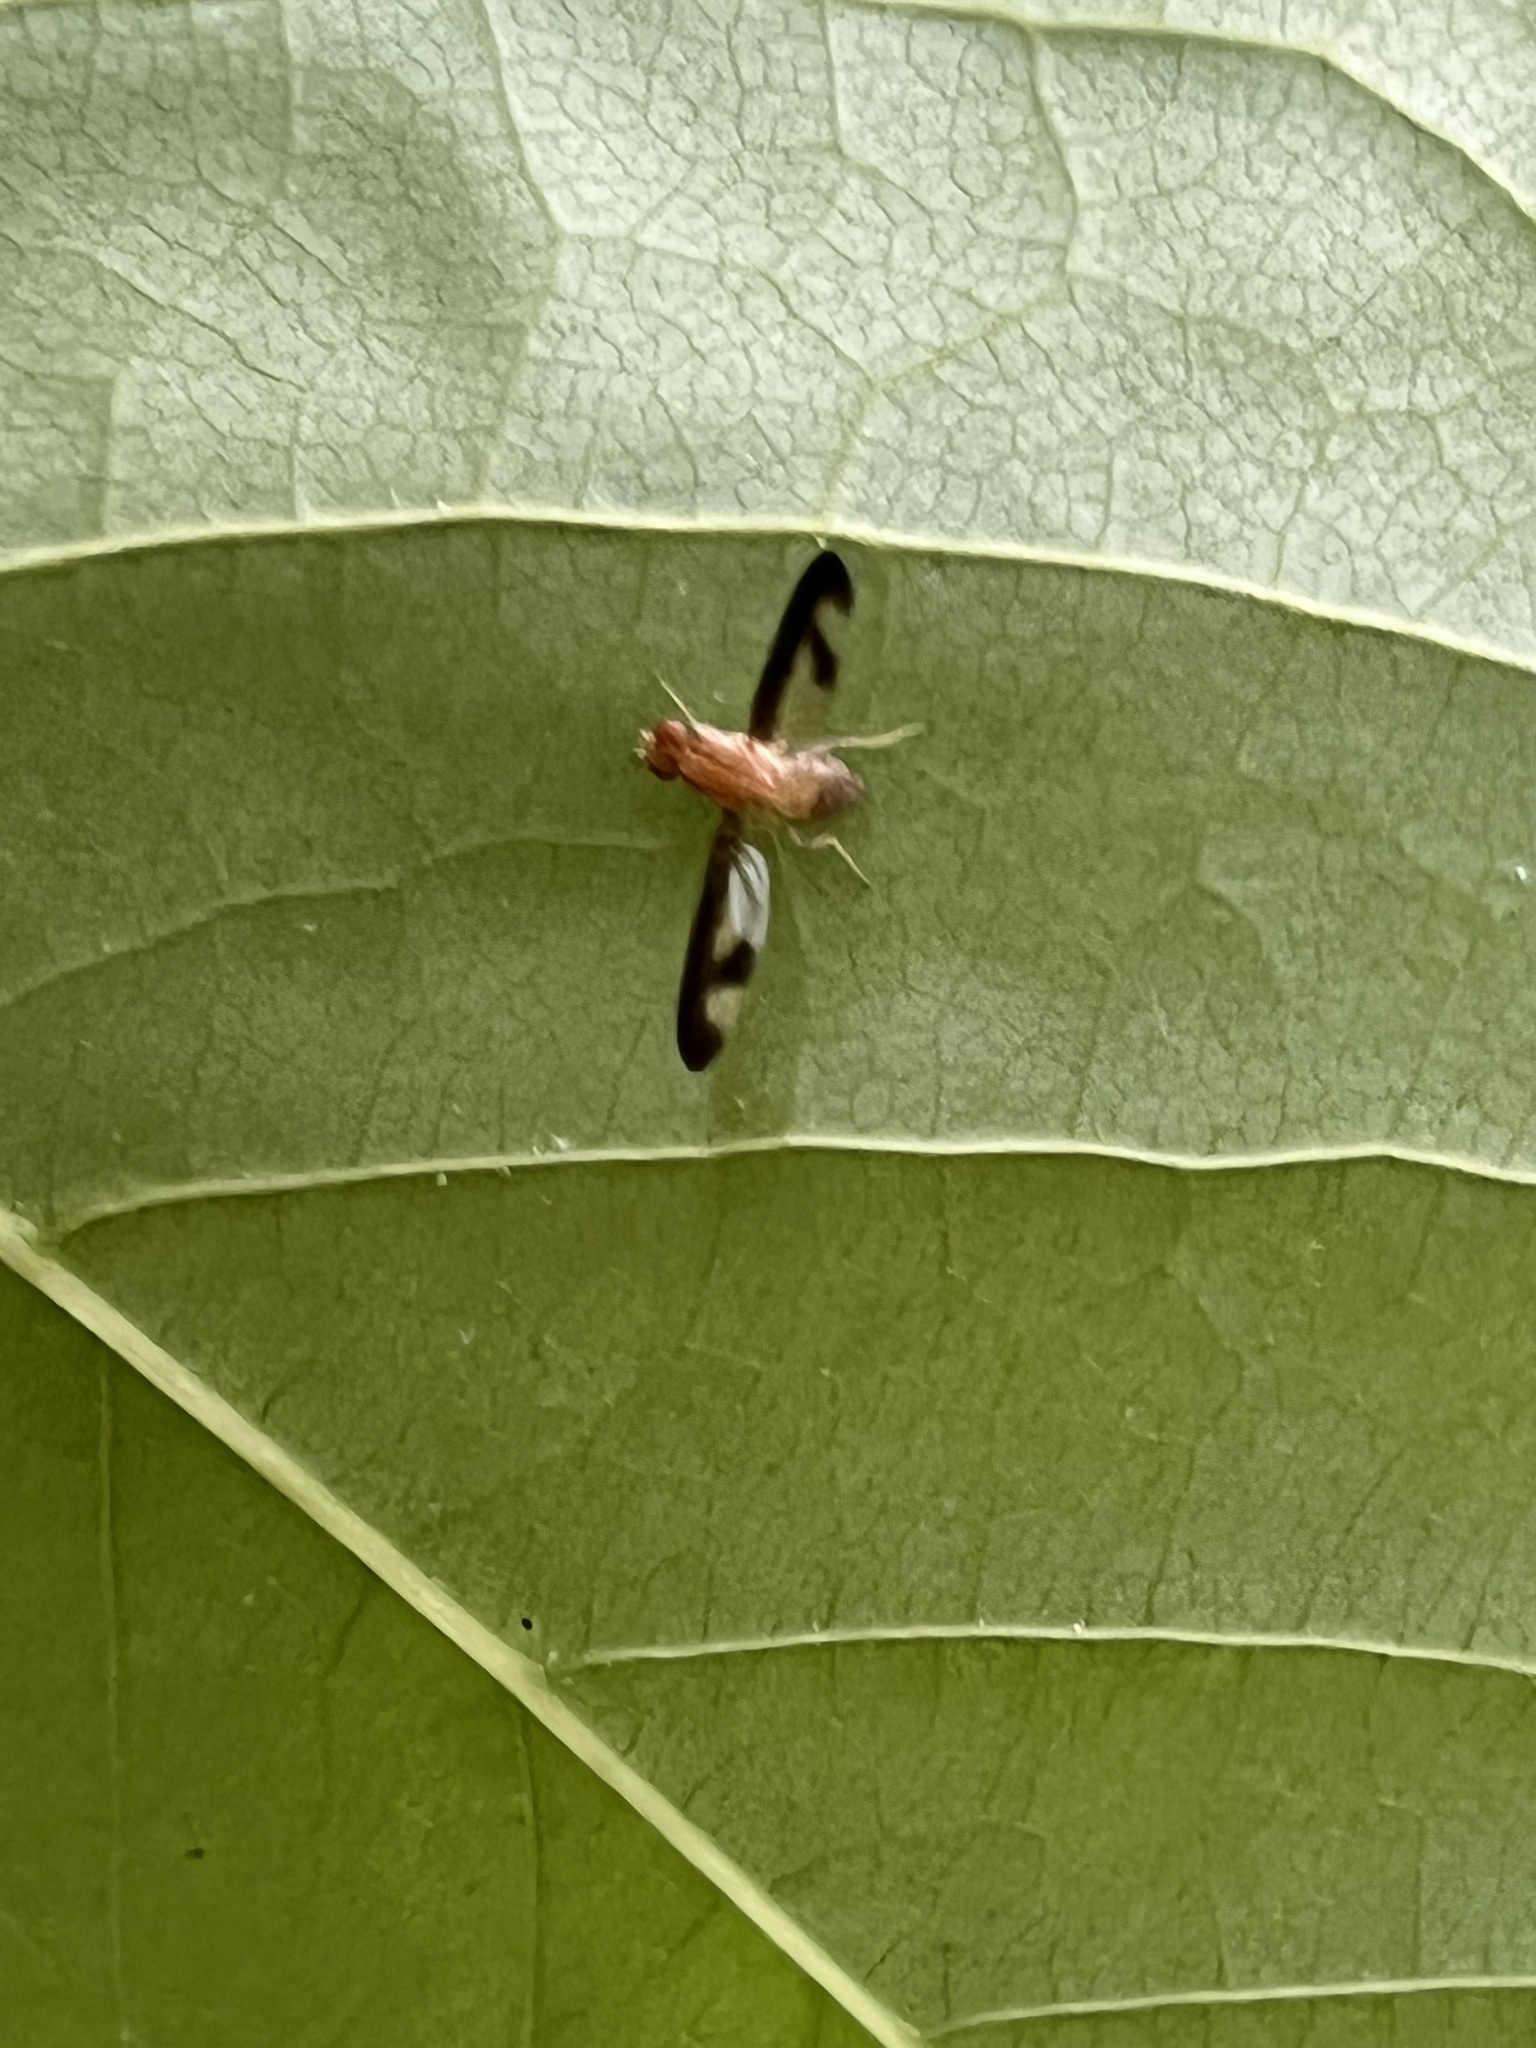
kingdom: Animalia
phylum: Arthropoda
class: Insecta
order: Diptera
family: Pallopteridae
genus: Toxonevra
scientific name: Toxonevra superba
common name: Antlered flutter fly
